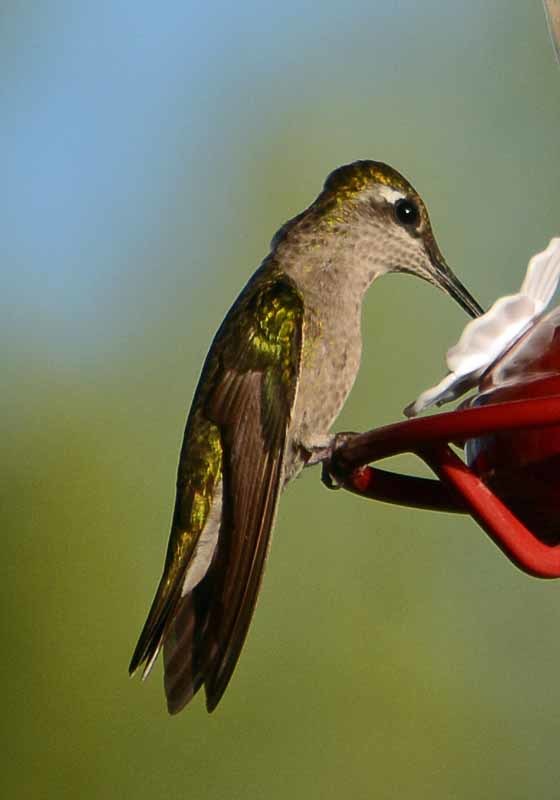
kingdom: Animalia
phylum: Chordata
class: Aves
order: Apodiformes
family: Trochilidae
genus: Eugenes
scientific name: Eugenes fulgens
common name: Magnificent hummingbird
